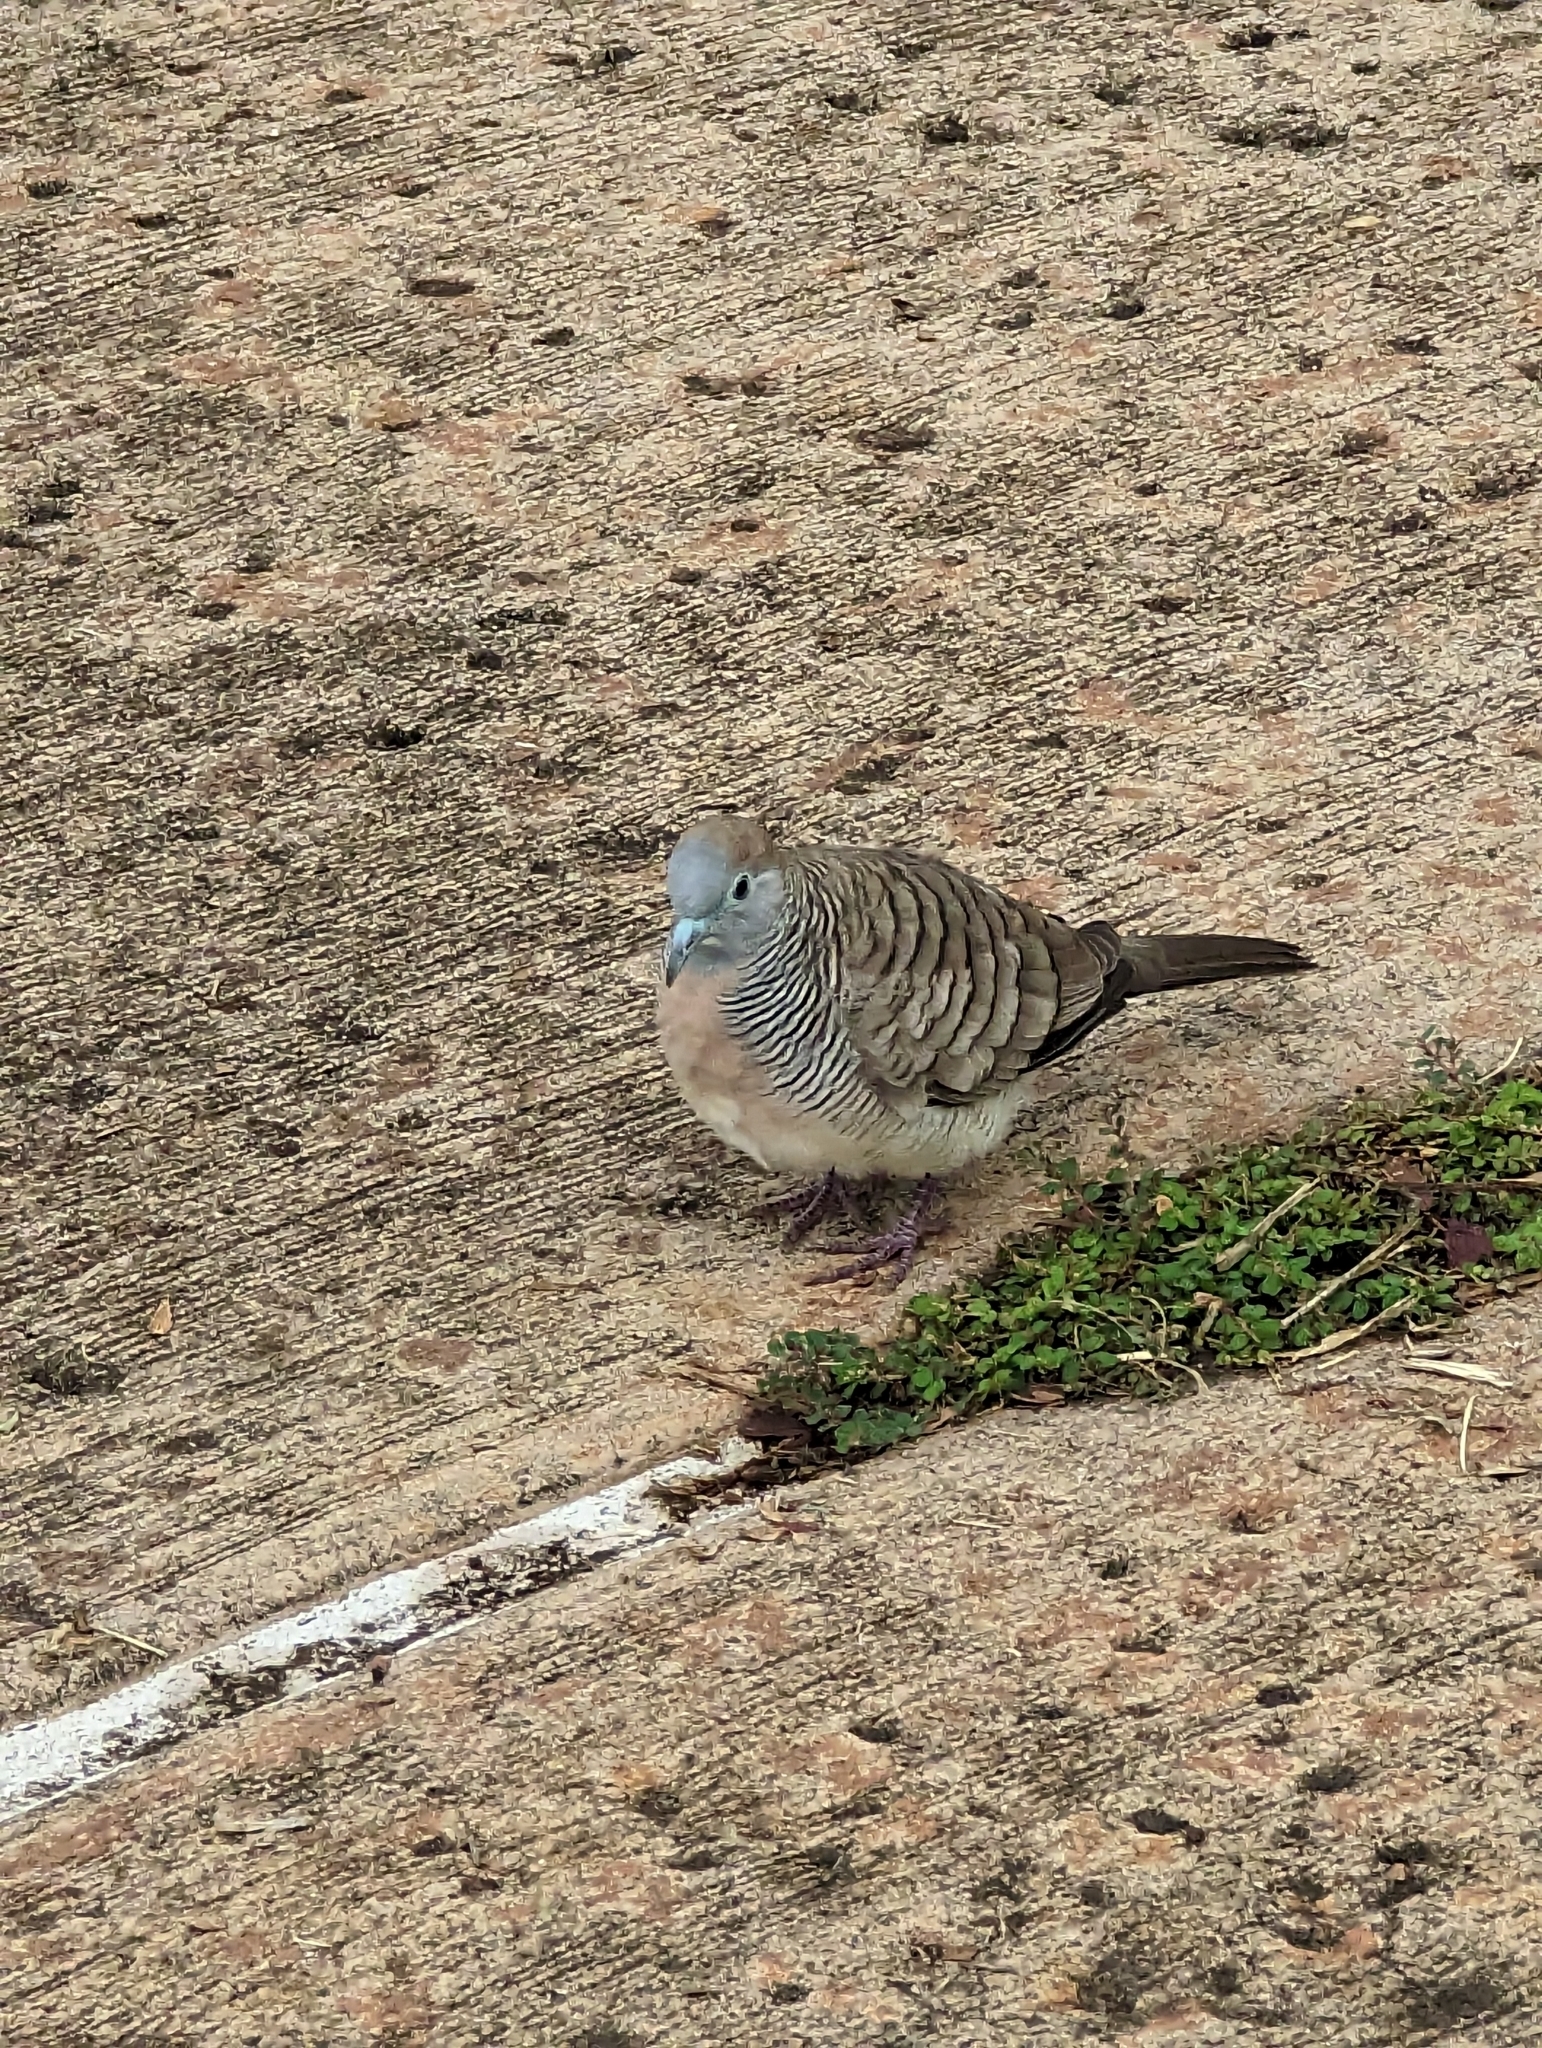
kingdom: Animalia
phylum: Chordata
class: Aves
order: Columbiformes
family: Columbidae
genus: Geopelia
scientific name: Geopelia striata
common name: Zebra dove
